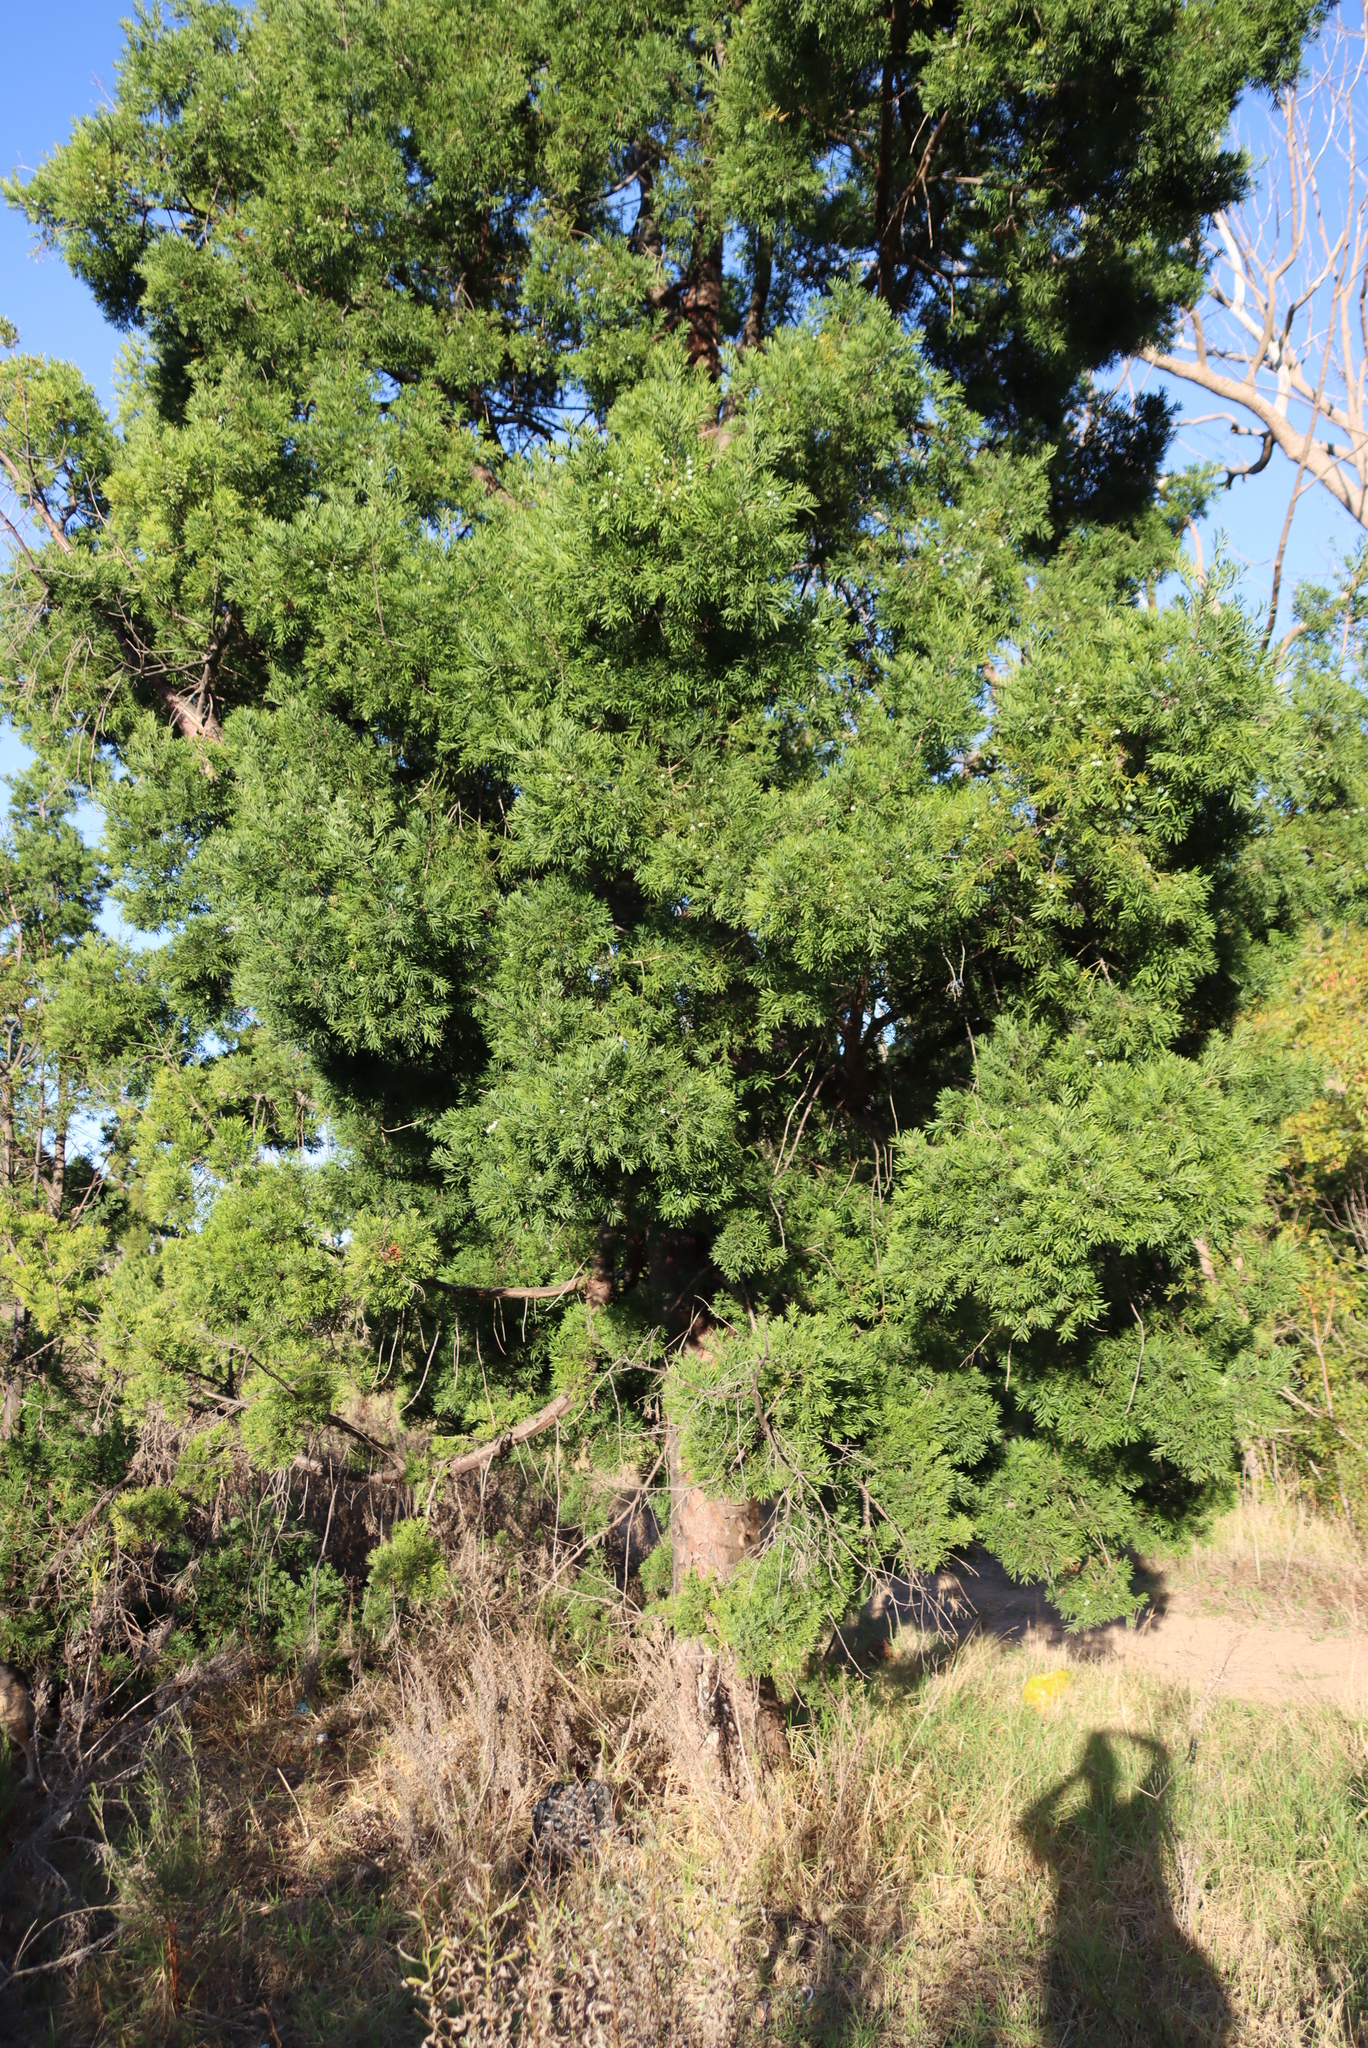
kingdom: Plantae
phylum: Tracheophyta
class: Pinopsida
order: Pinales
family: Podocarpaceae
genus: Afrocarpus
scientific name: Afrocarpus falcatus
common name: Bastard yellowwood
